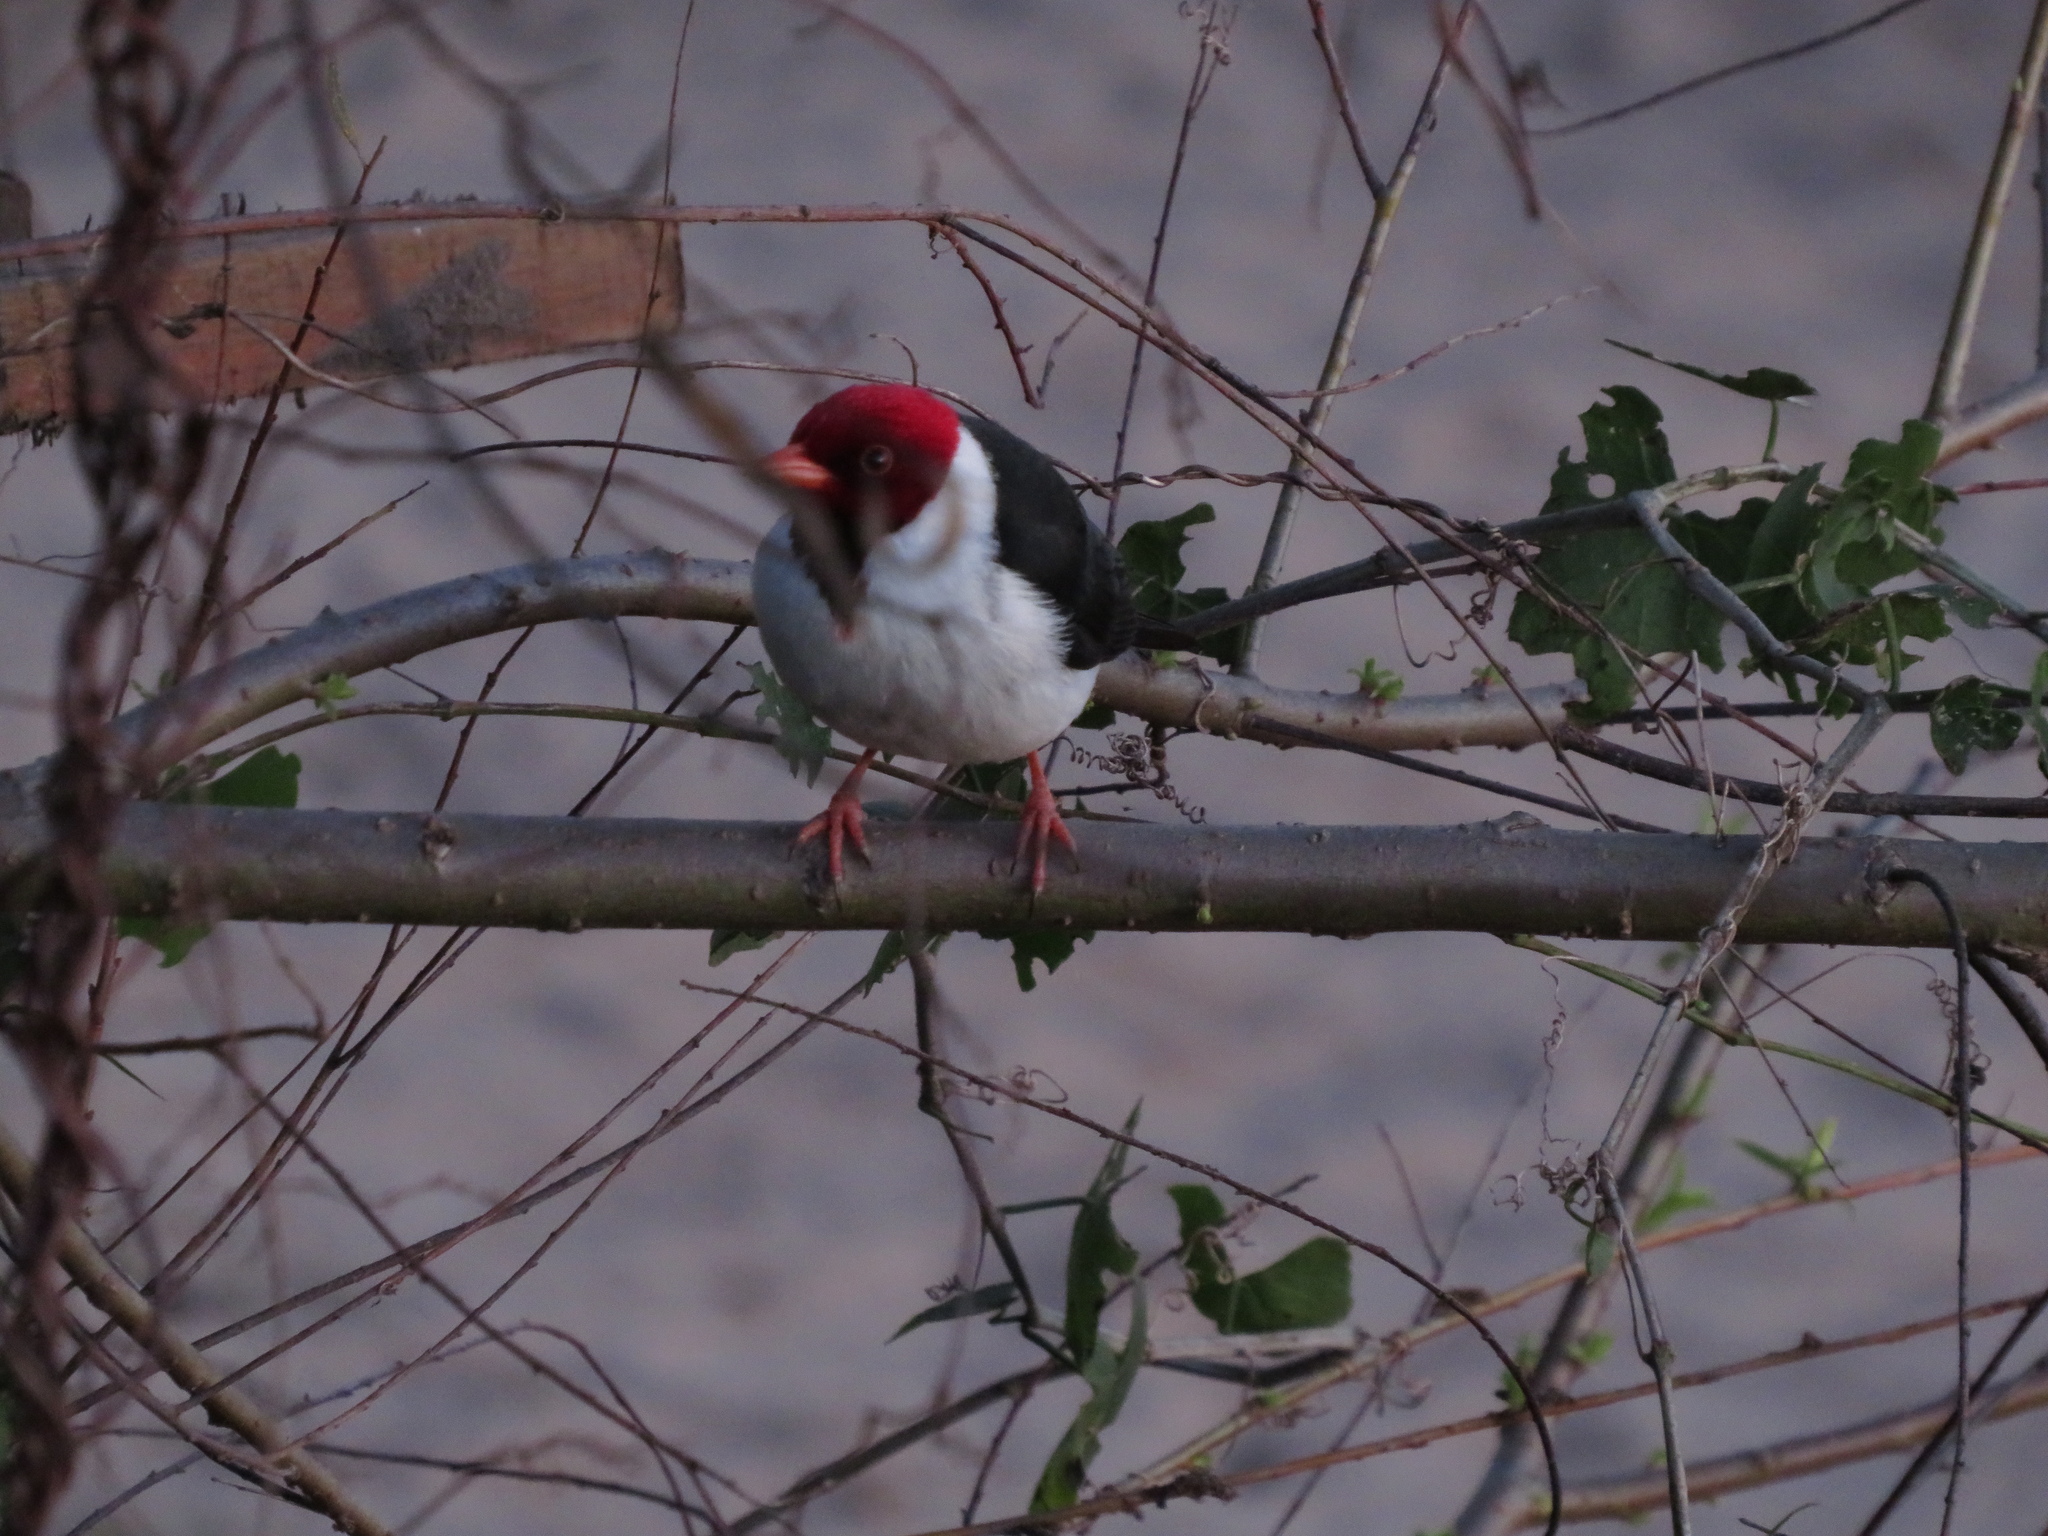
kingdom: Animalia
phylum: Chordata
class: Aves
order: Passeriformes
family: Thraupidae
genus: Paroaria
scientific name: Paroaria capitata
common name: Yellow-billed cardinal
